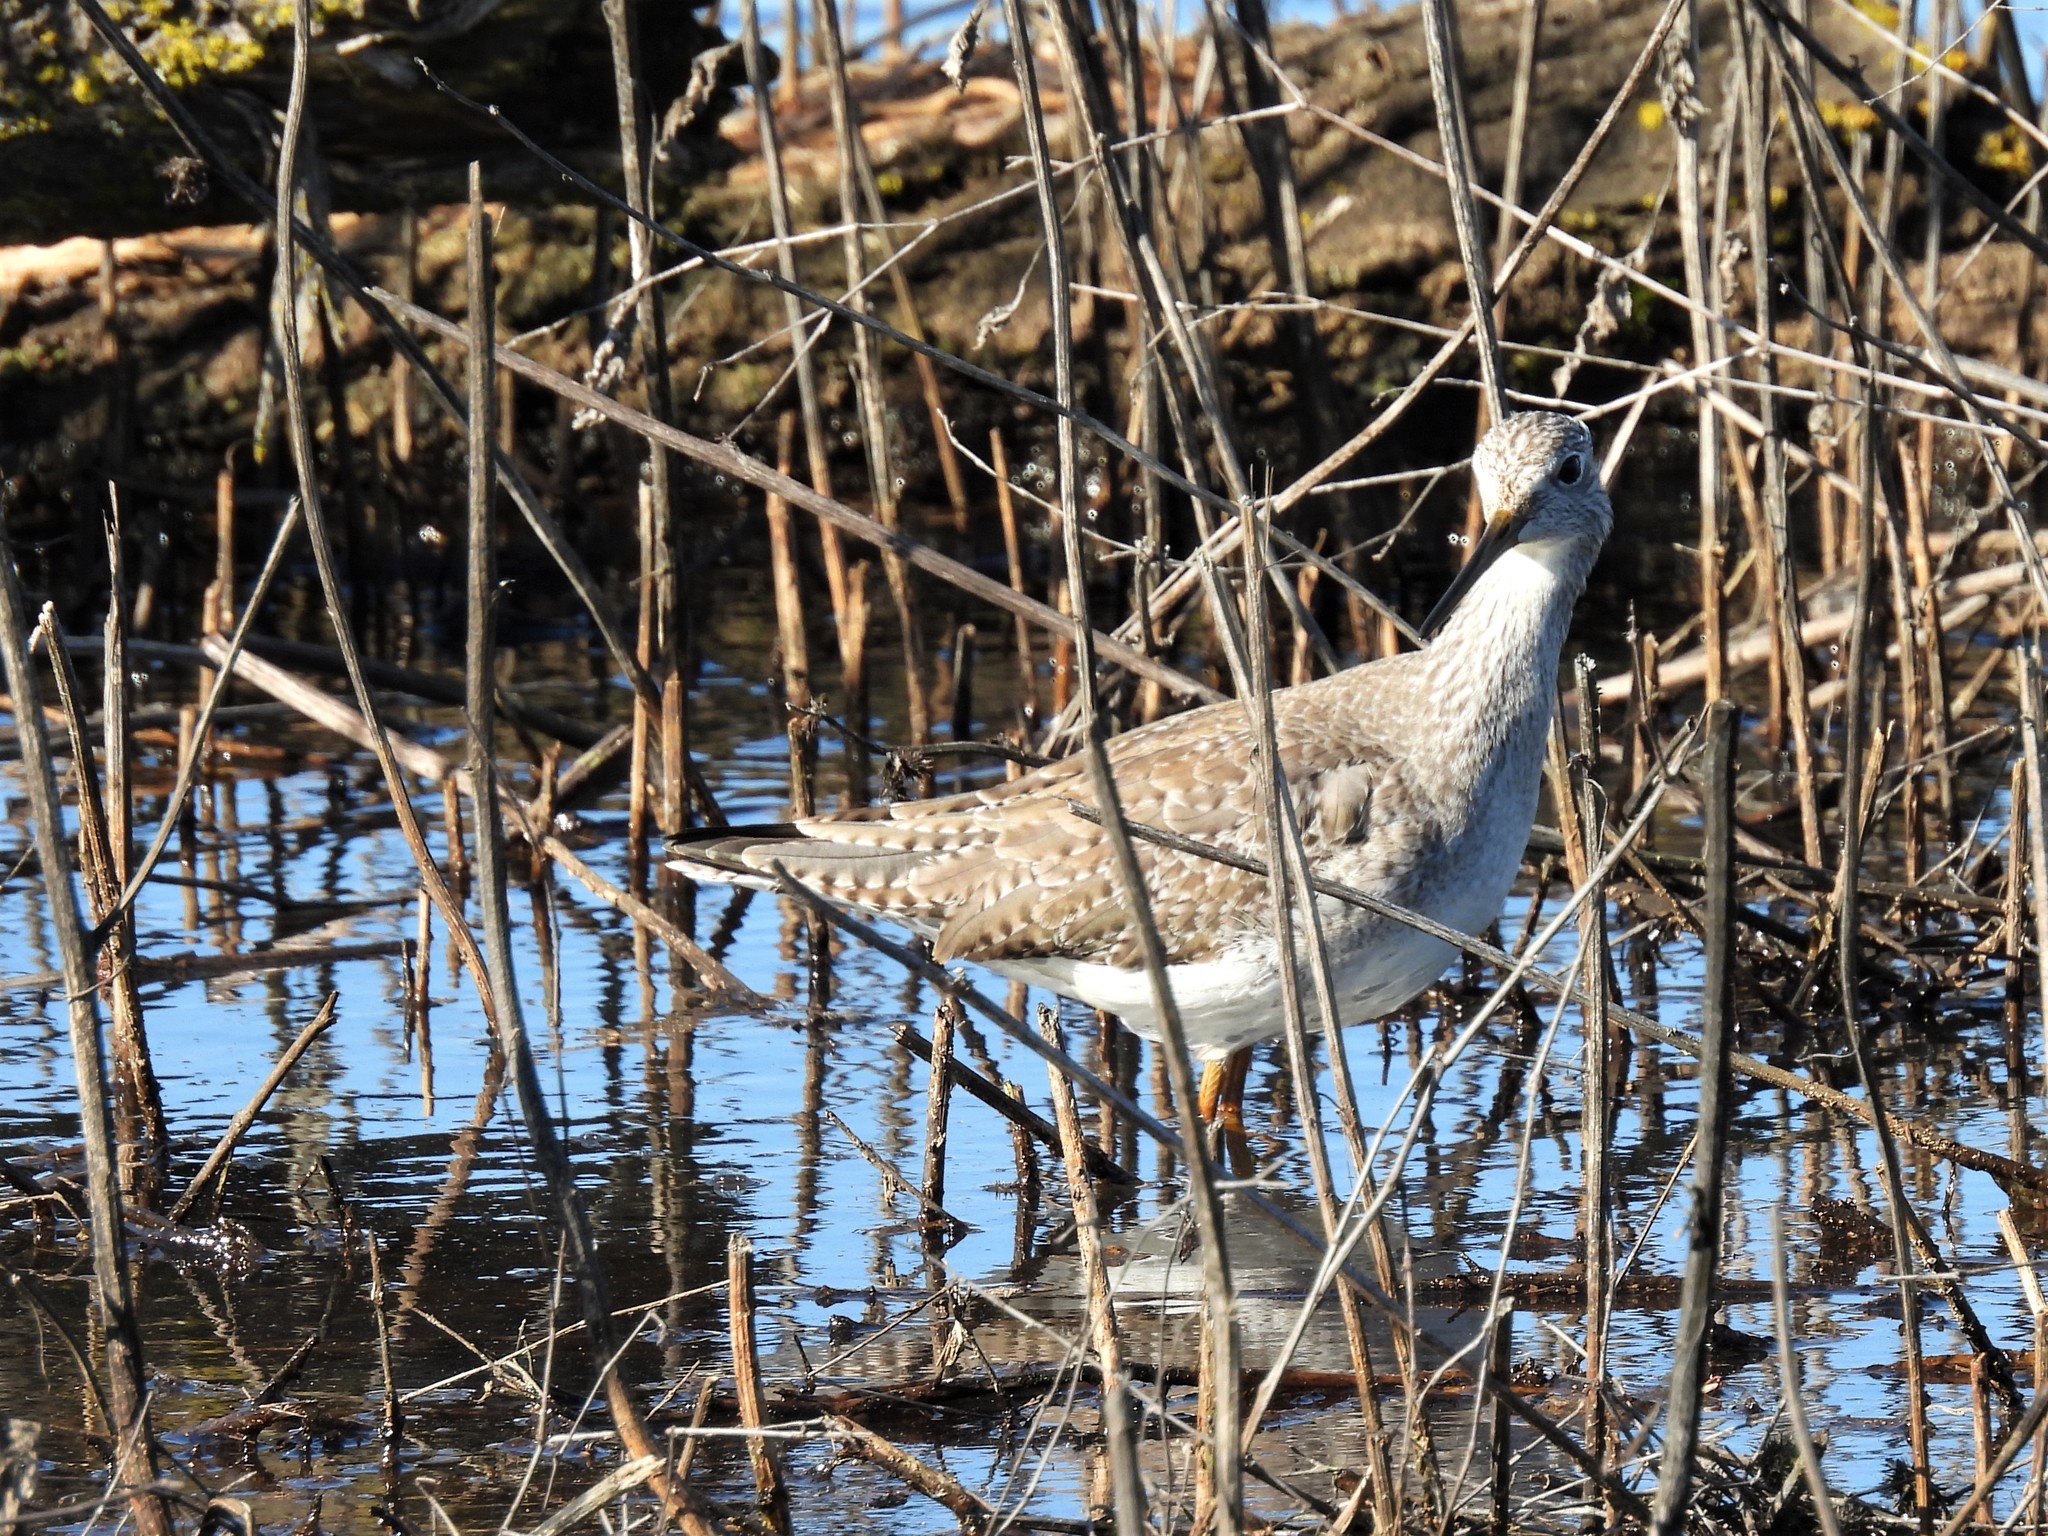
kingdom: Animalia
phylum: Chordata
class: Aves
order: Charadriiformes
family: Scolopacidae
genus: Tringa
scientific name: Tringa melanoleuca
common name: Greater yellowlegs
